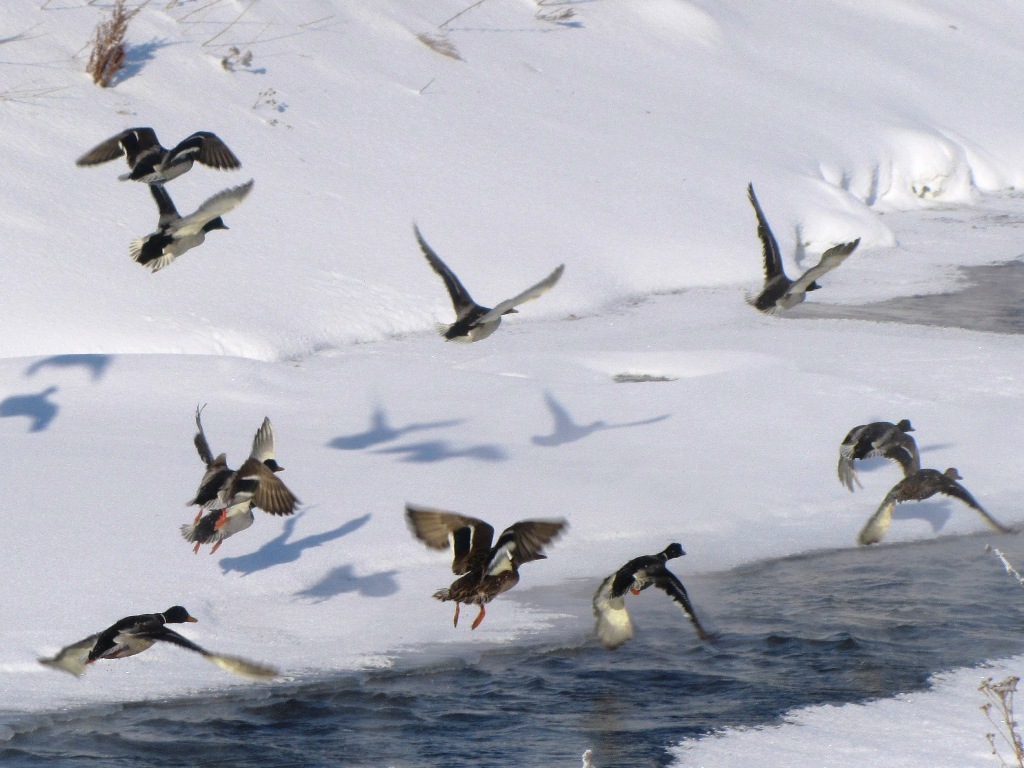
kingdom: Animalia
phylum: Chordata
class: Aves
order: Anseriformes
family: Anatidae
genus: Anas
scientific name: Anas platyrhynchos
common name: Mallard
